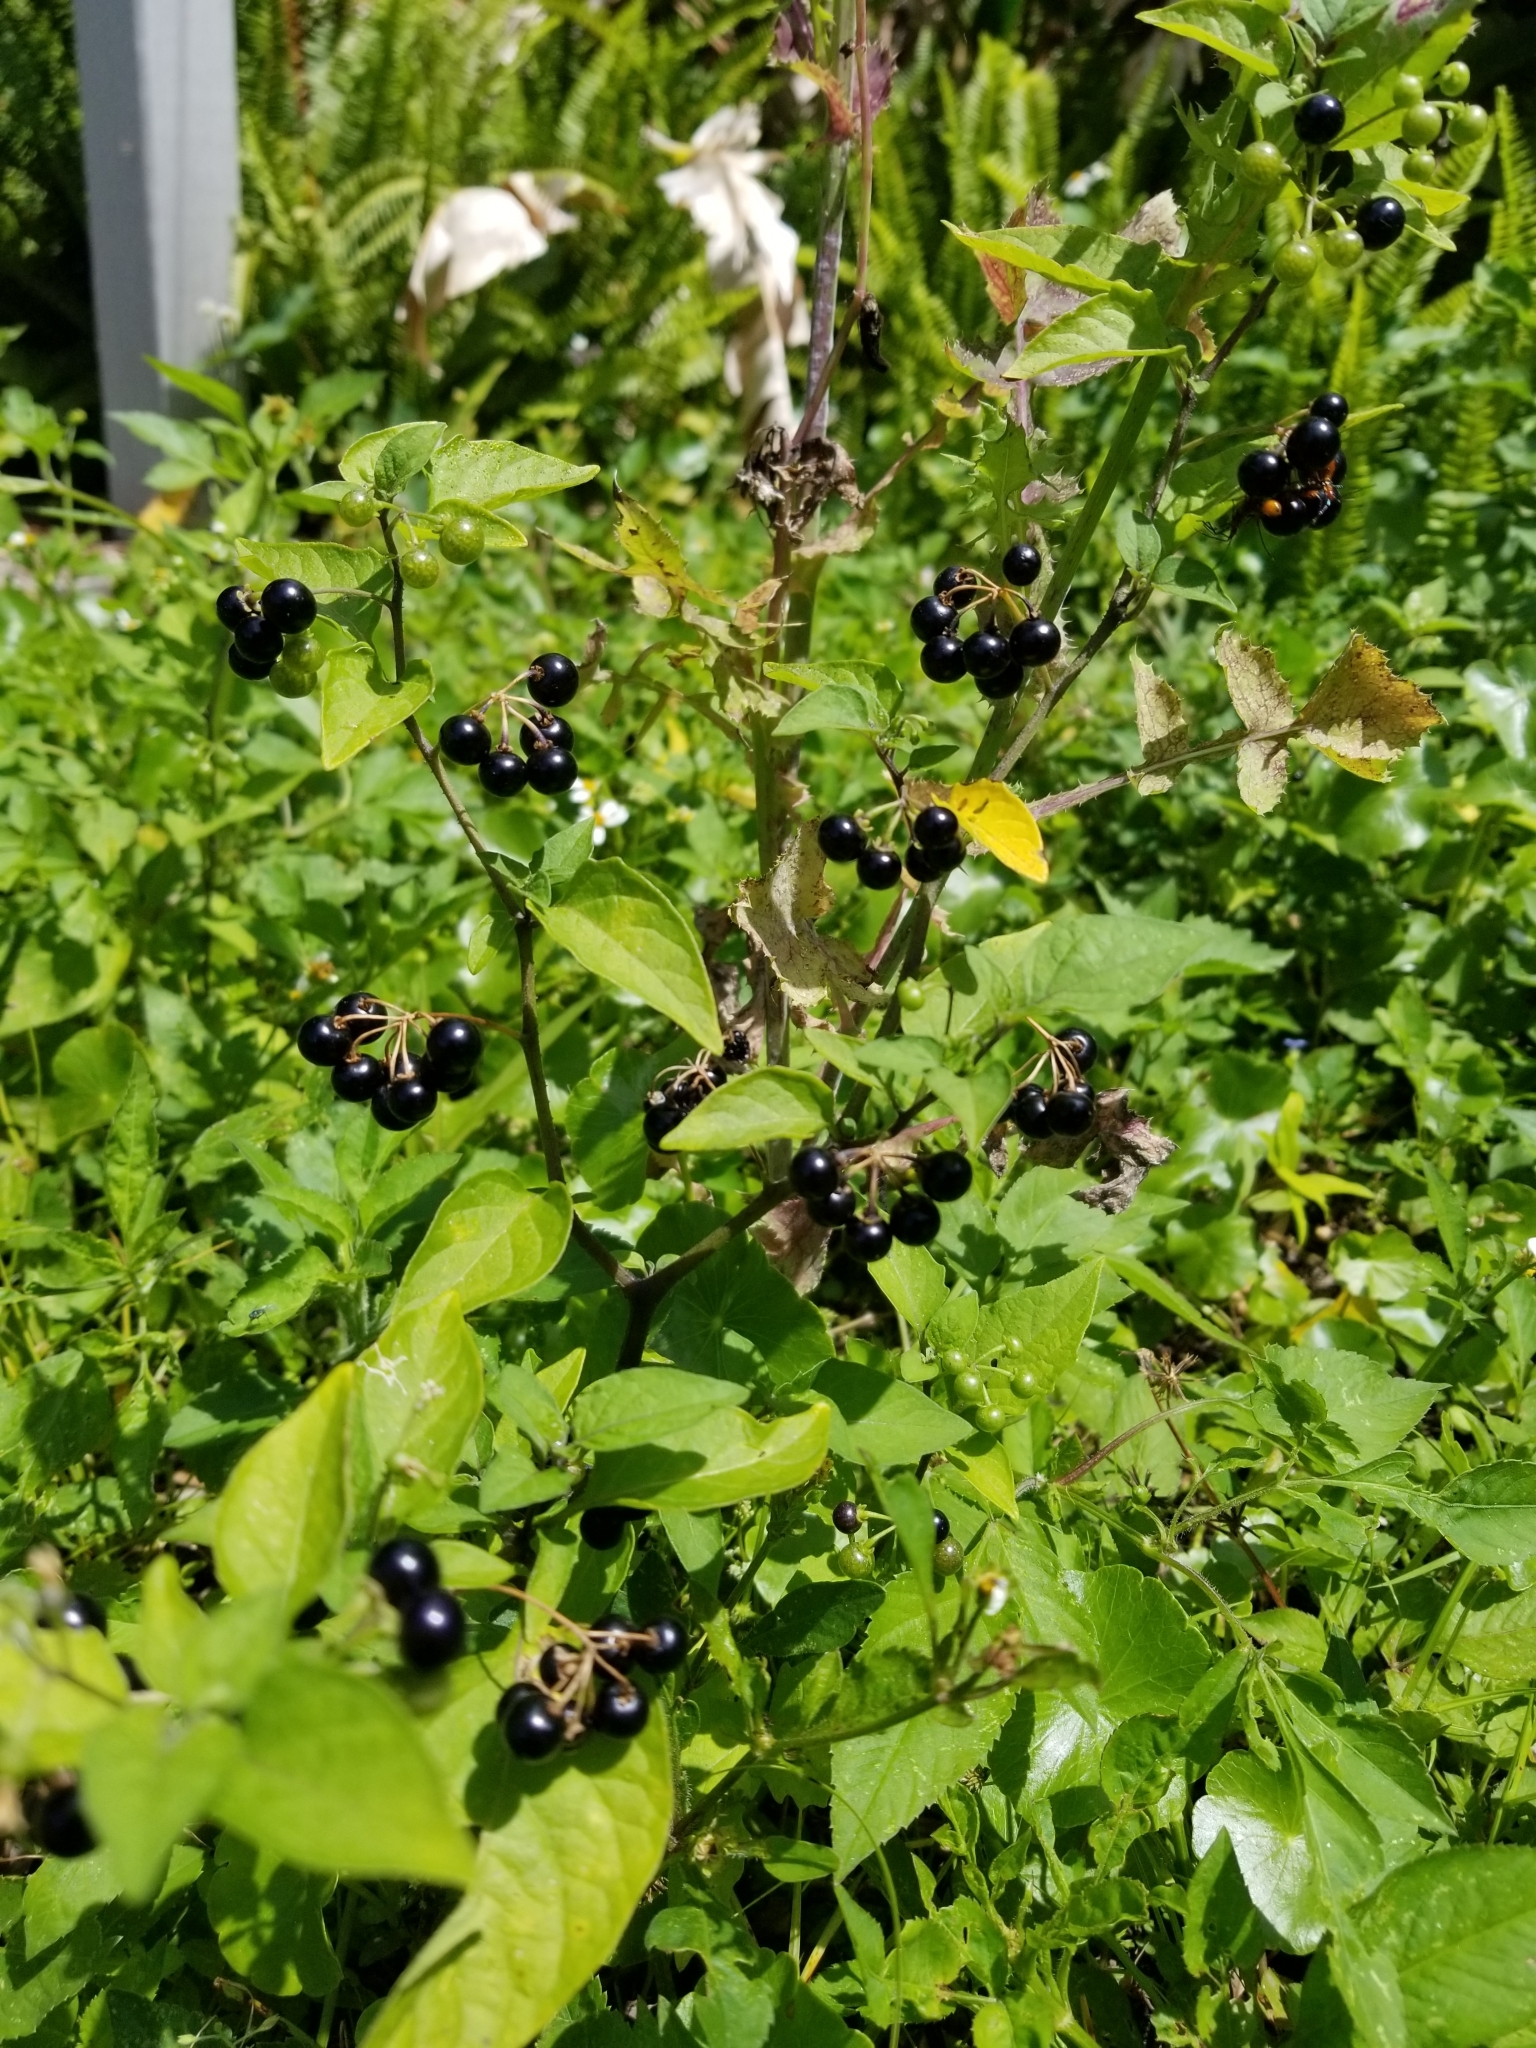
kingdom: Plantae
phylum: Tracheophyta
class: Magnoliopsida
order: Solanales
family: Solanaceae
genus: Solanum
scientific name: Solanum americanum
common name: American black nightshade
